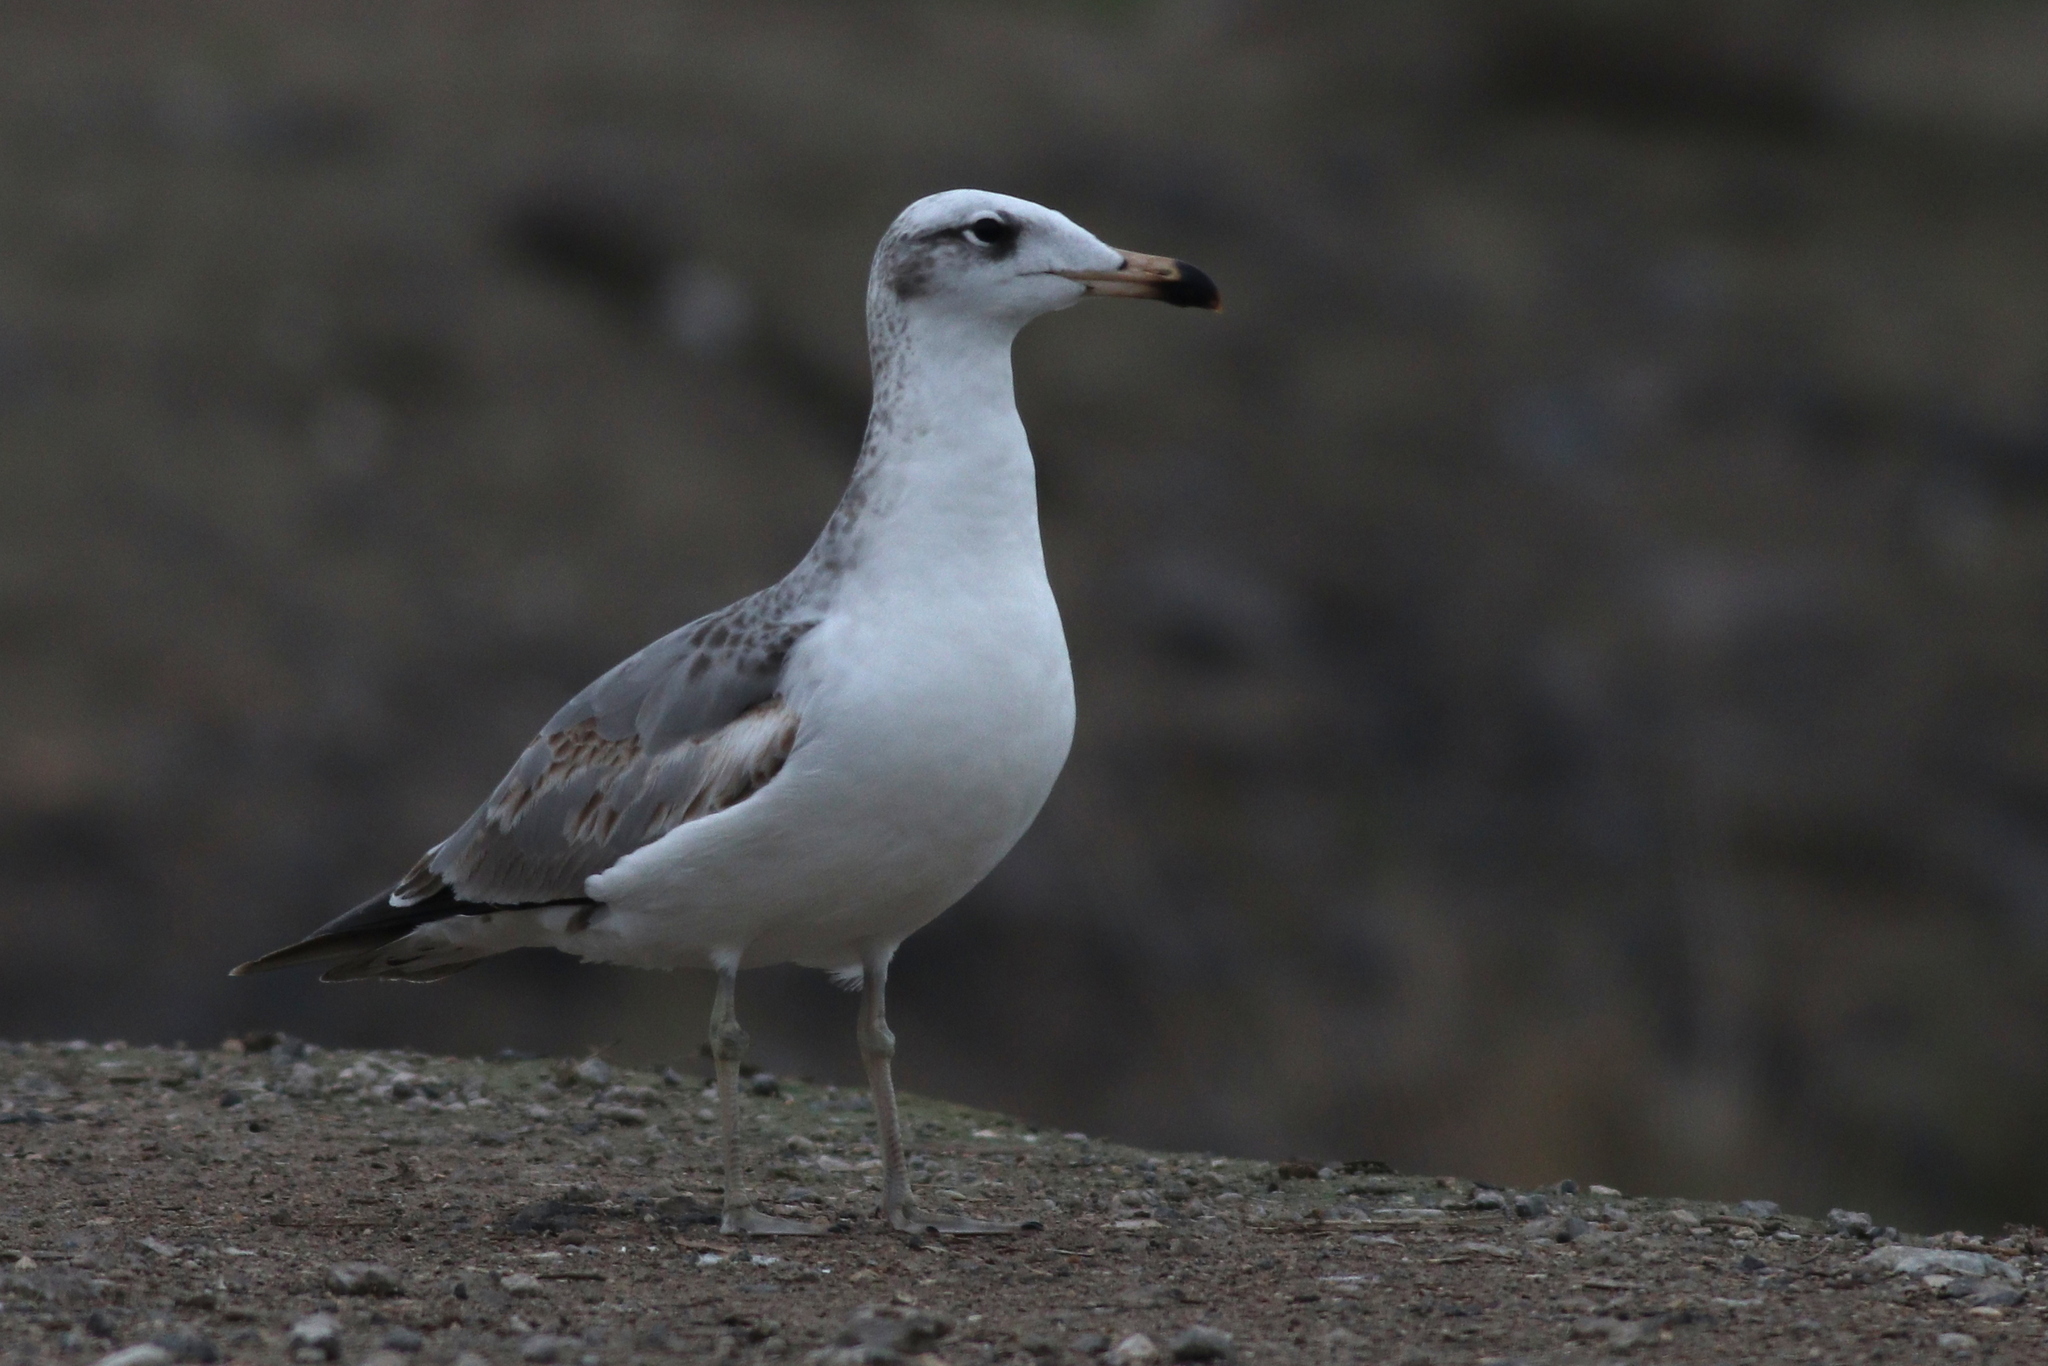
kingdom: Animalia
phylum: Chordata
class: Aves
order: Charadriiformes
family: Laridae
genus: Ichthyaetus
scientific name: Ichthyaetus ichthyaetus
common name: Pallas's gull
